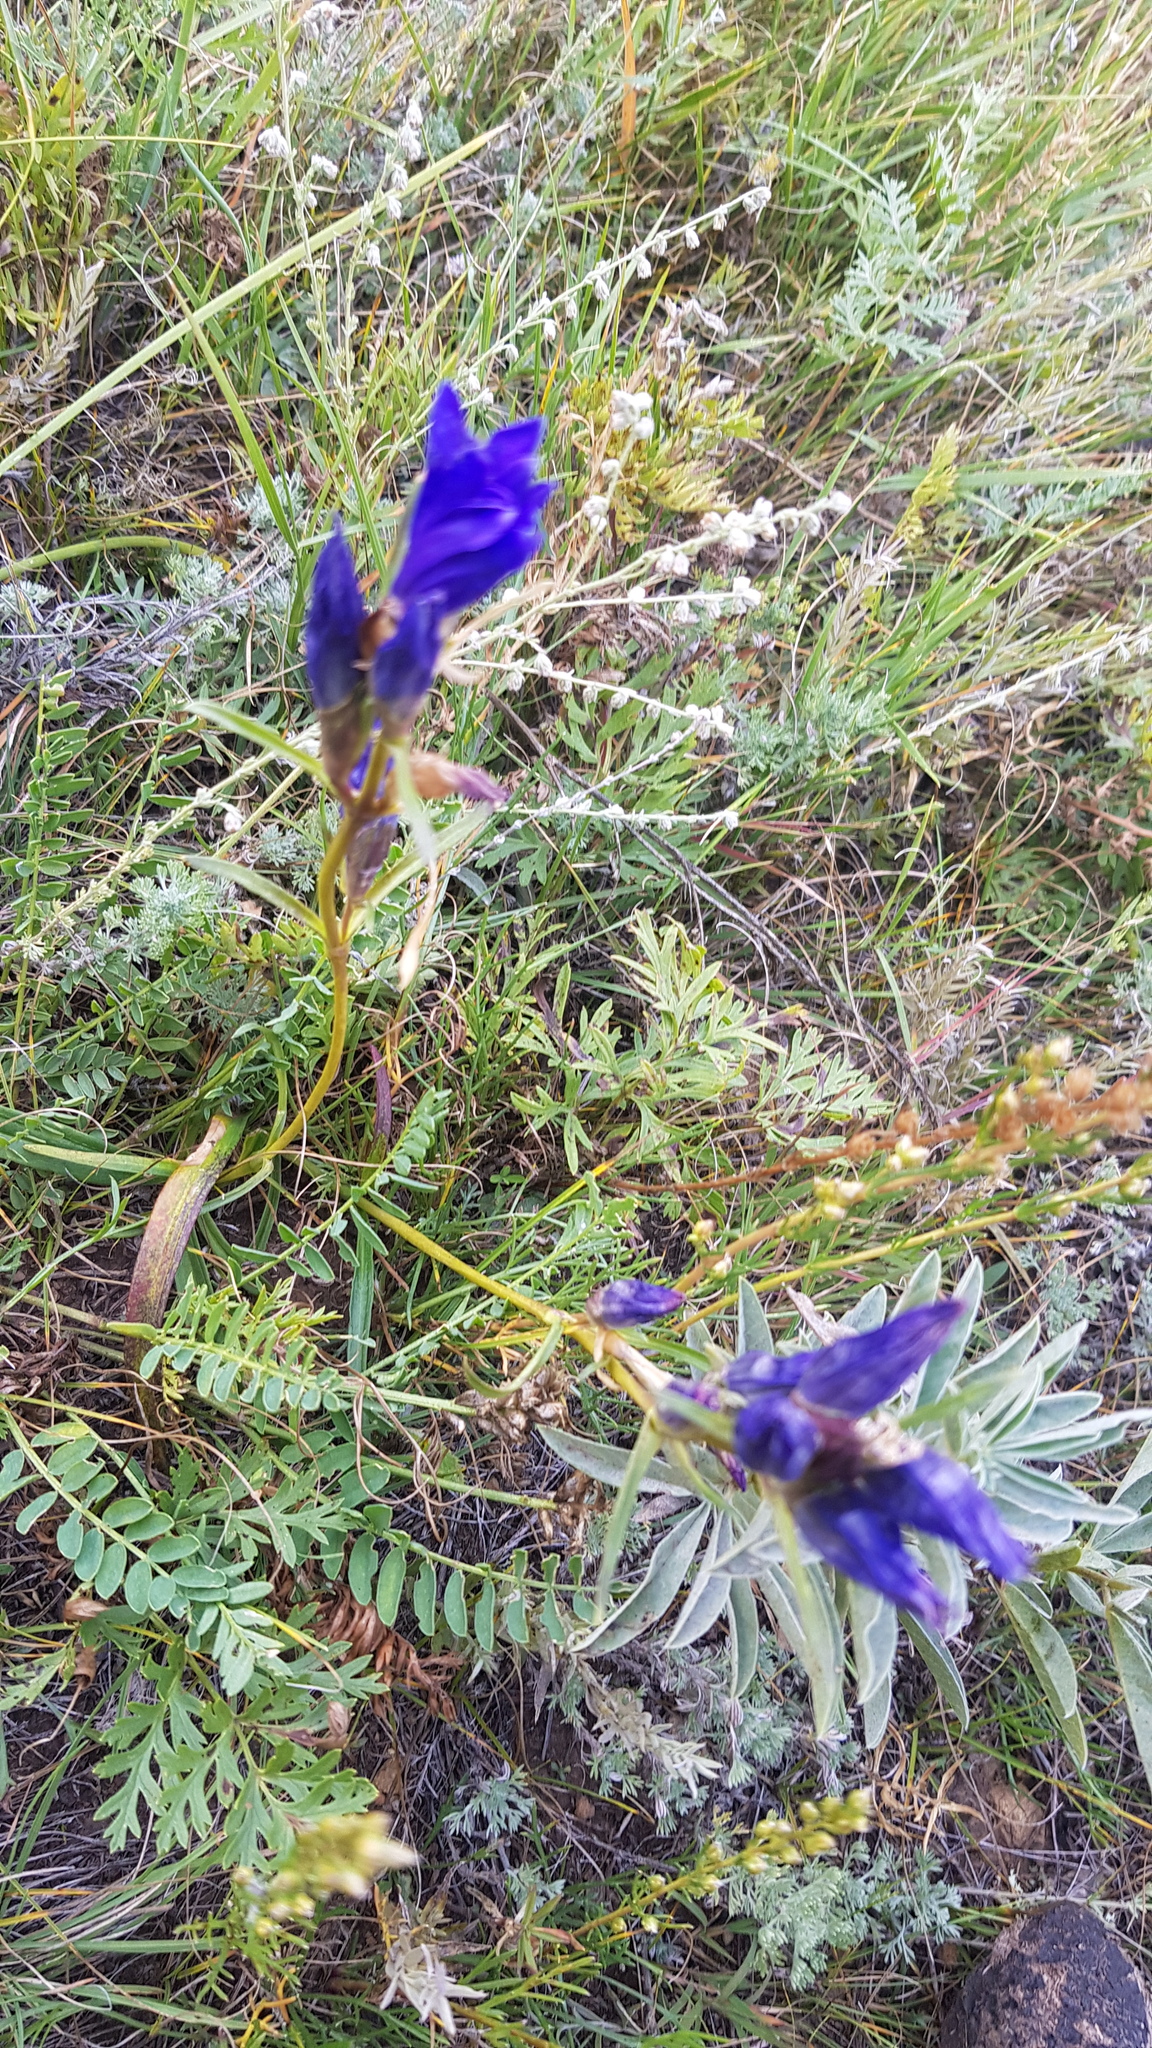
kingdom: Plantae
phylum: Tracheophyta
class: Magnoliopsida
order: Gentianales
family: Gentianaceae
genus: Gentiana
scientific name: Gentiana decumbens
